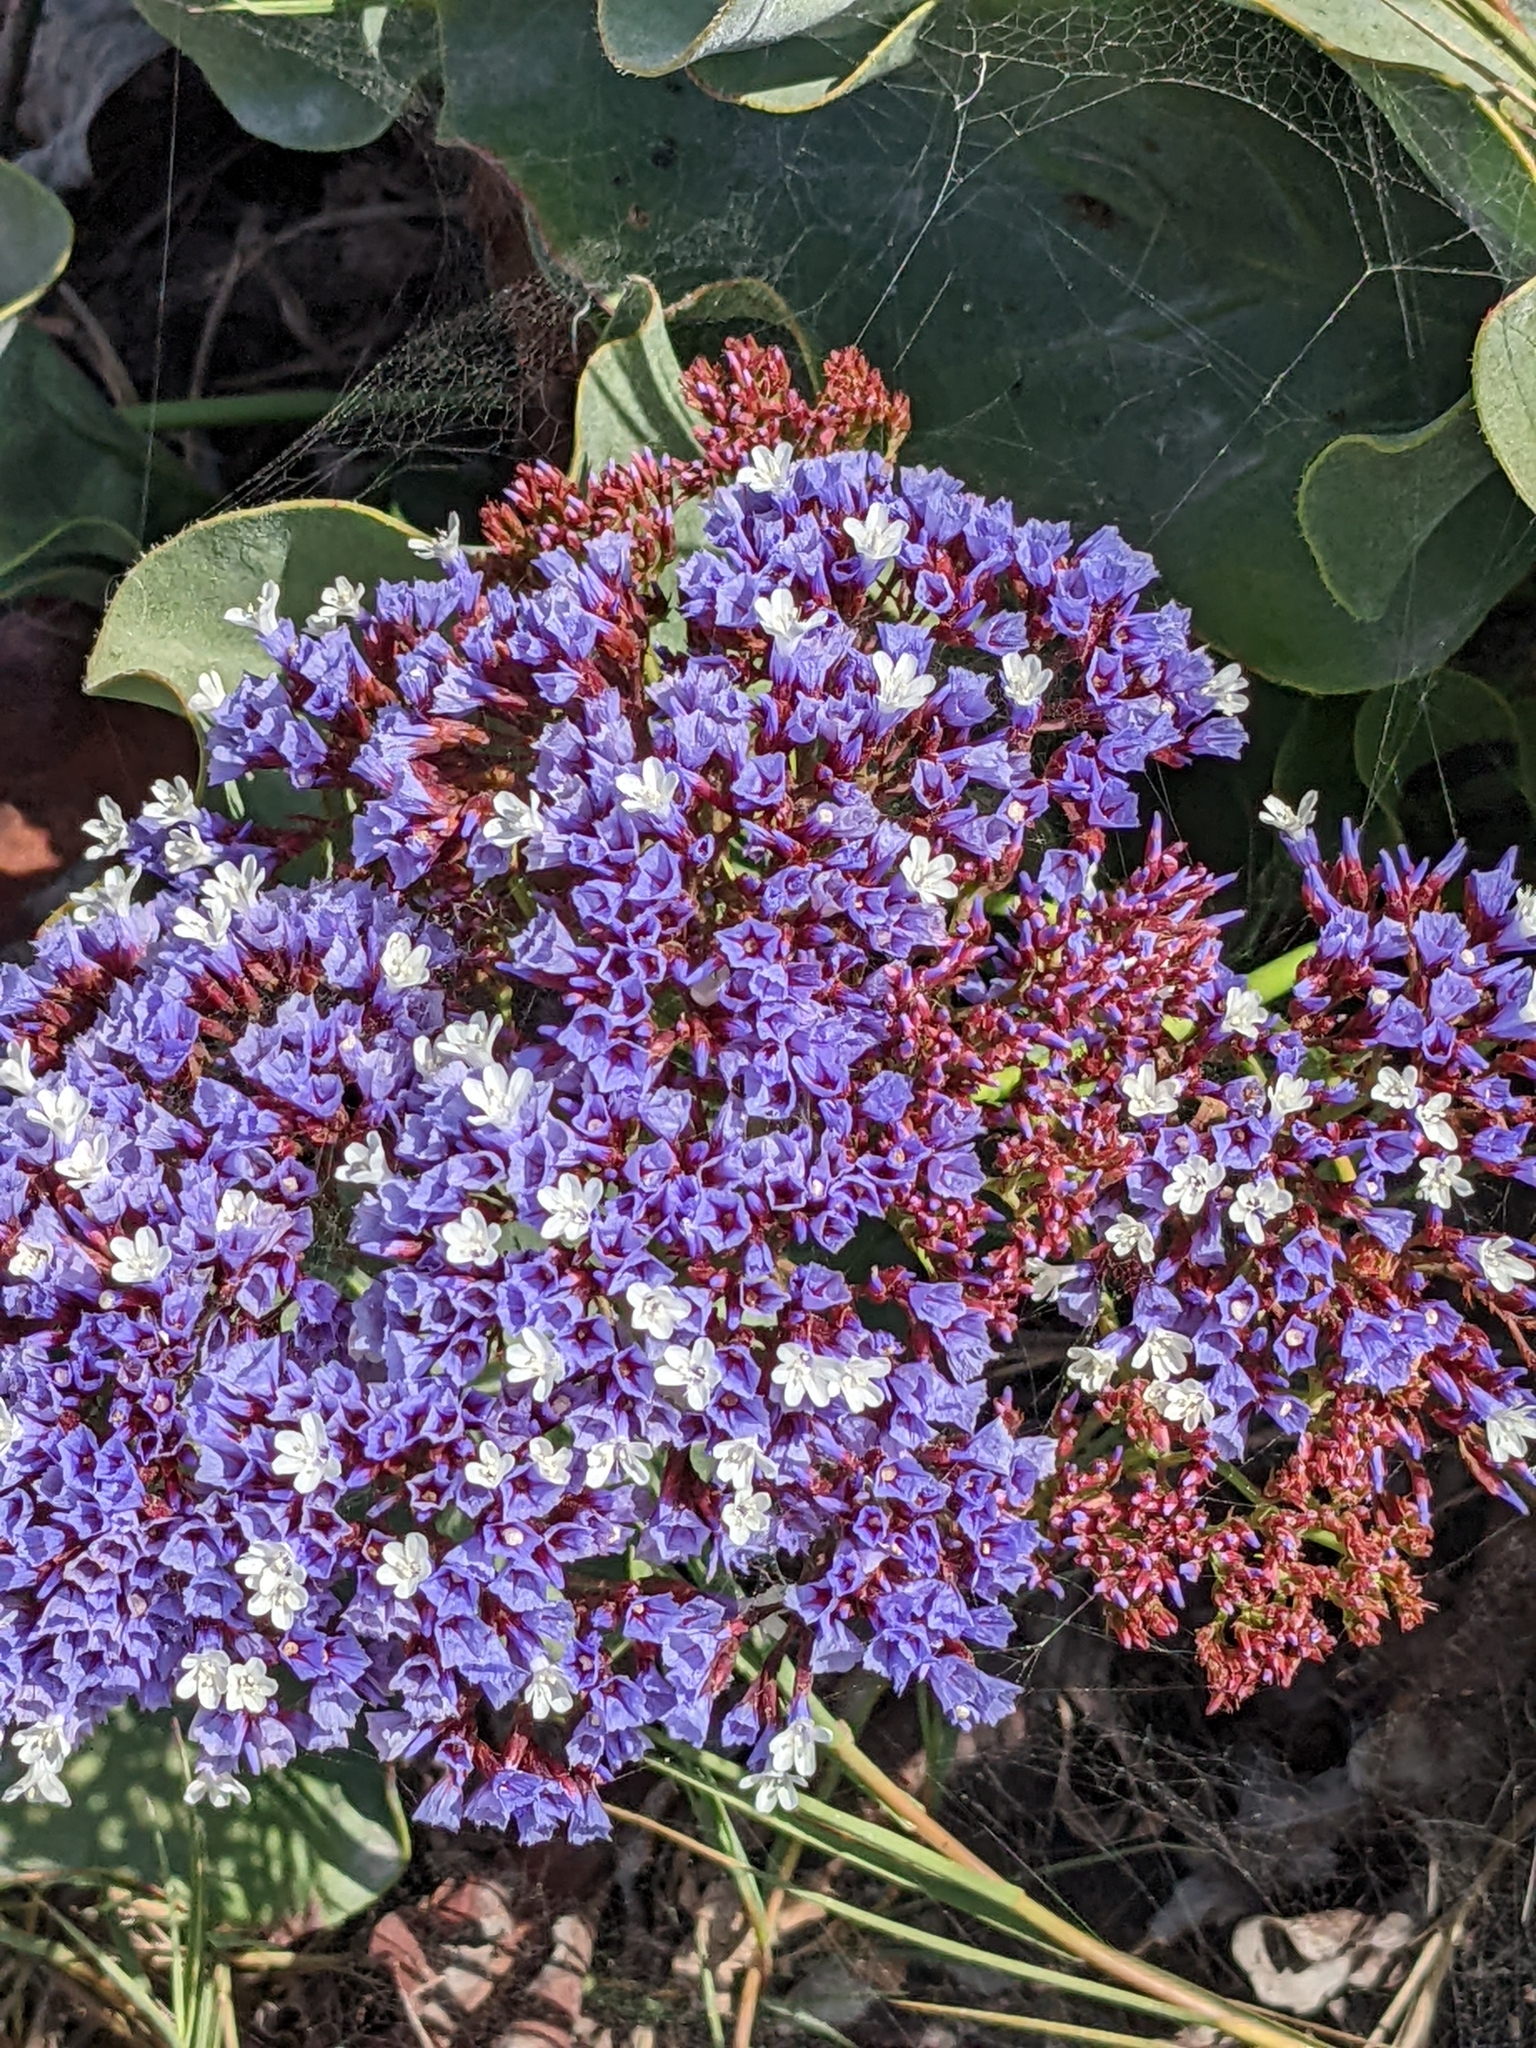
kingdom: Plantae
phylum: Tracheophyta
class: Magnoliopsida
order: Caryophyllales
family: Plumbaginaceae
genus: Limonium
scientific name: Limonium perezii
